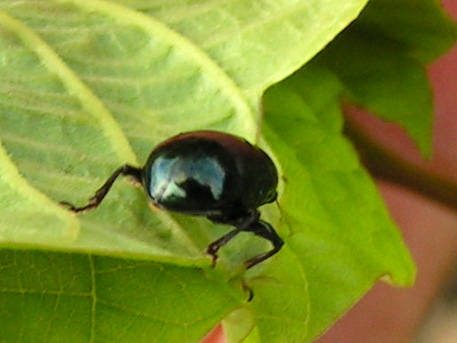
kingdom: Animalia
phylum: Arthropoda
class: Insecta
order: Coleoptera
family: Chrysomelidae
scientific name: Chrysomelidae
